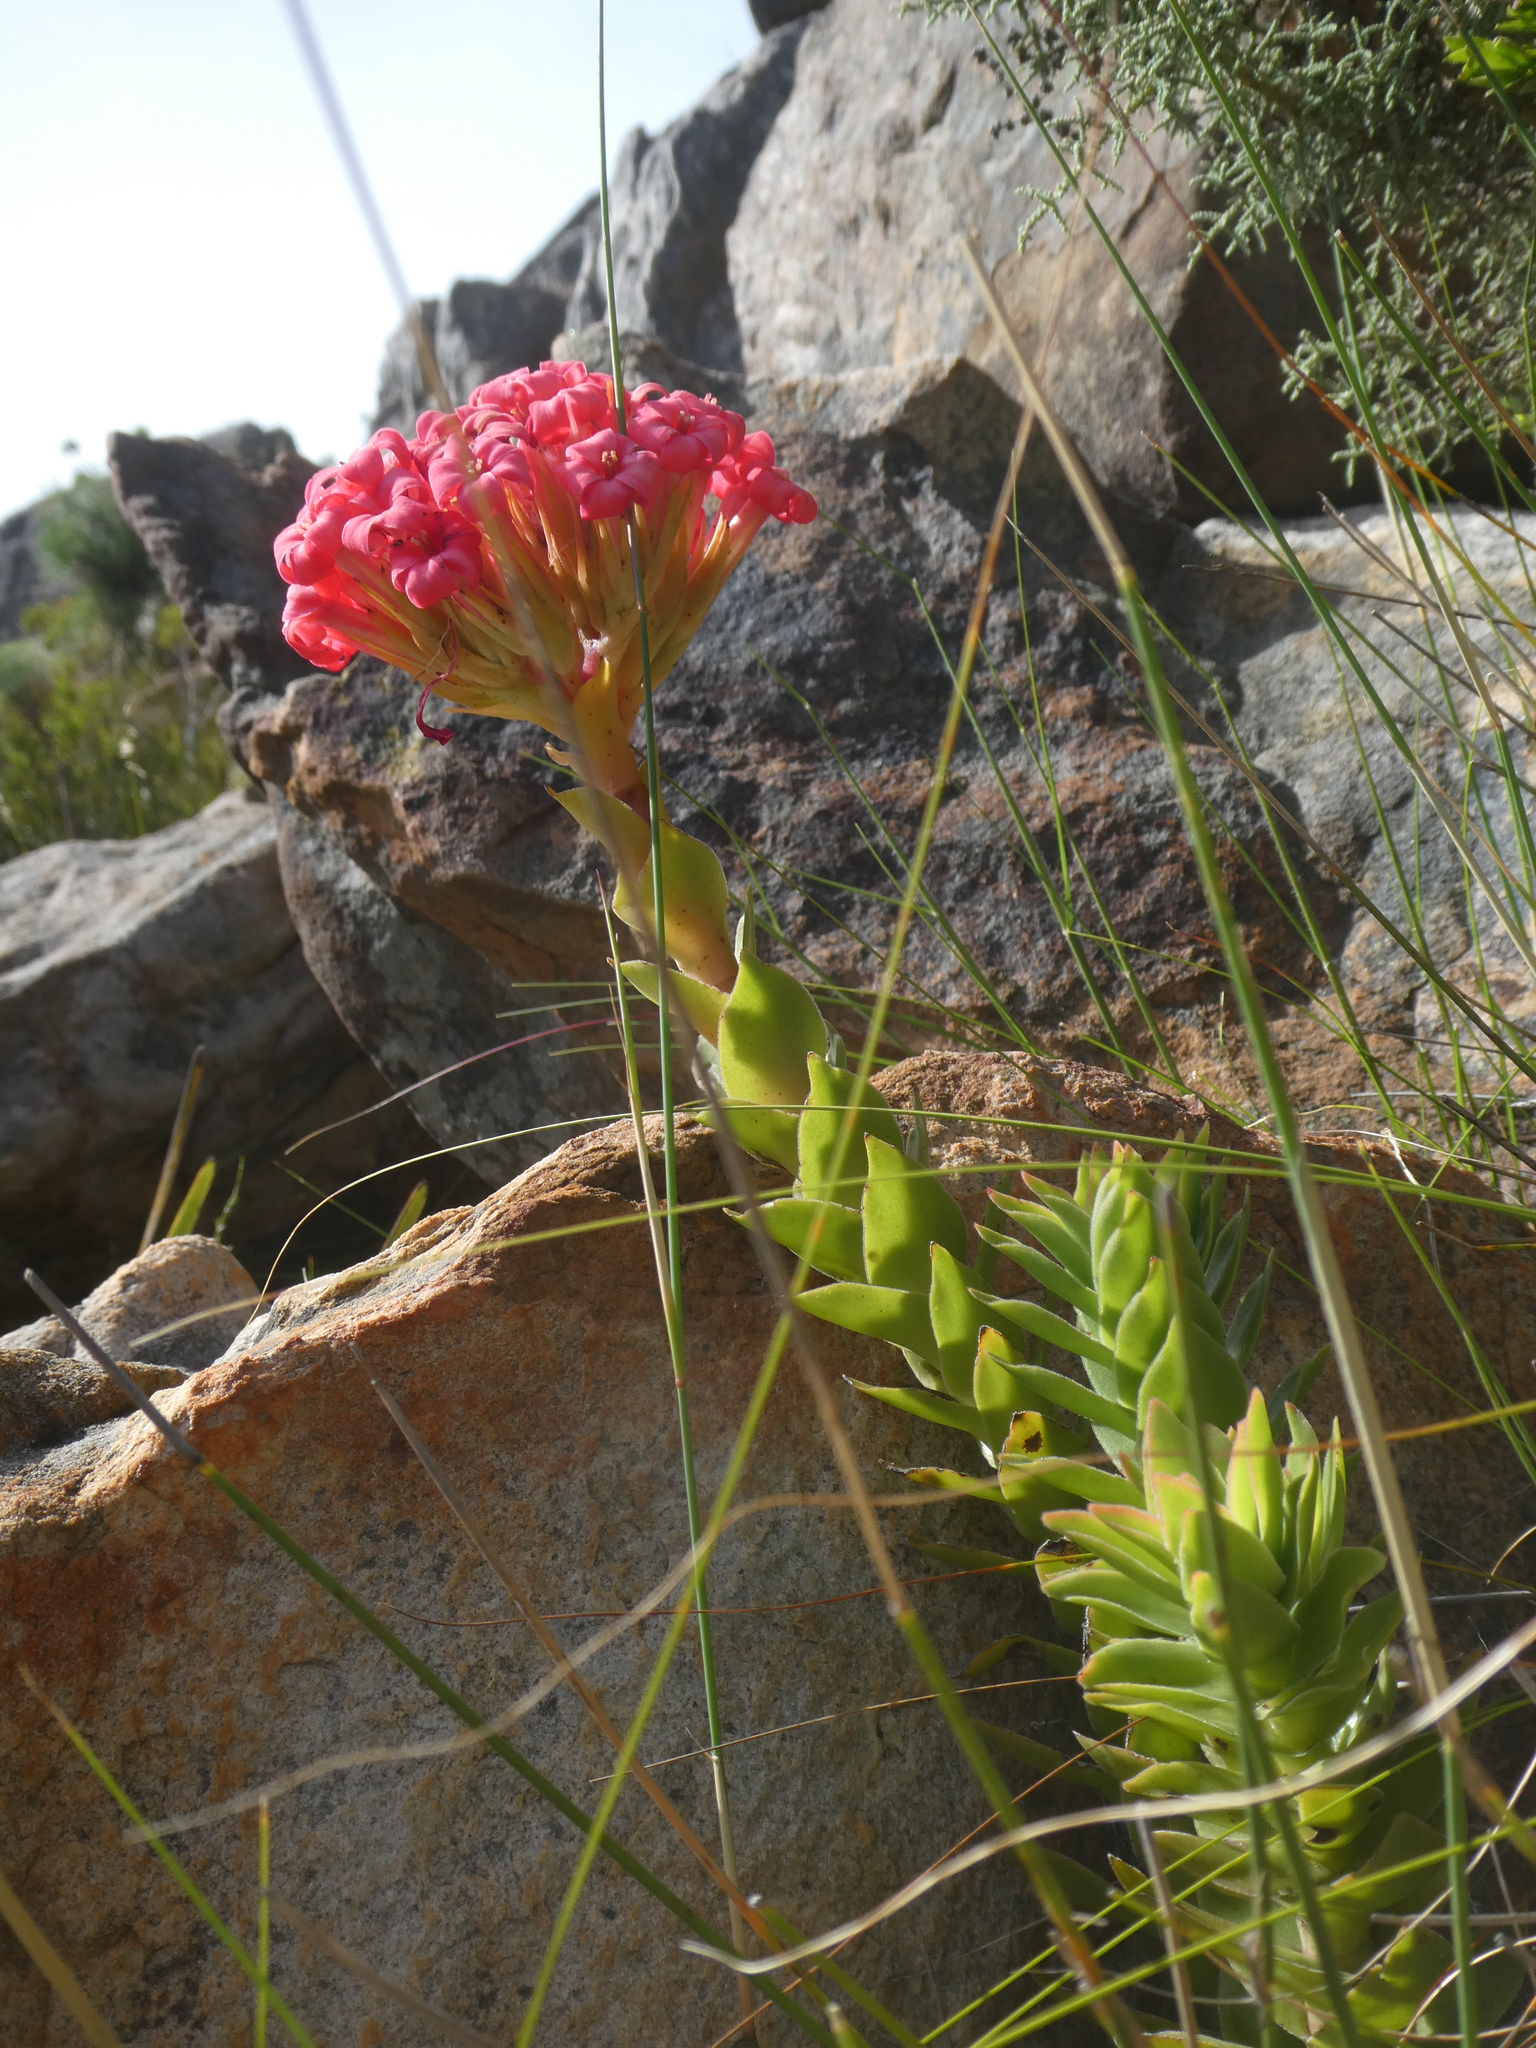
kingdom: Plantae
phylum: Tracheophyta
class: Magnoliopsida
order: Saxifragales
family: Crassulaceae
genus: Crassula
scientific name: Crassula coccinea
